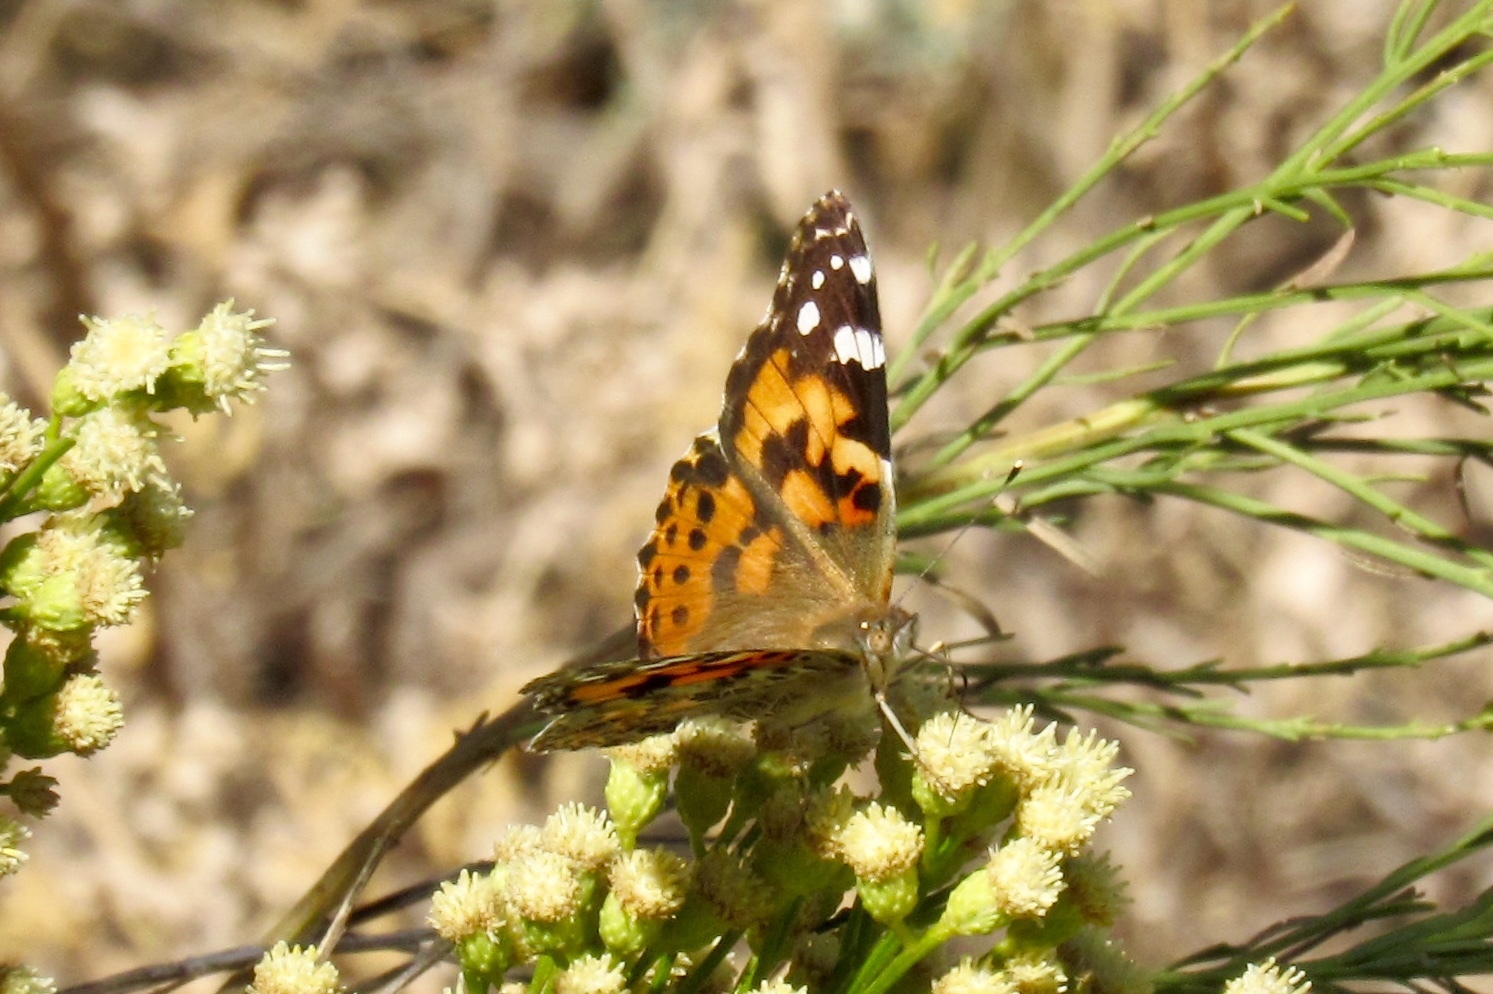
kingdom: Animalia
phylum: Arthropoda
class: Insecta
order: Lepidoptera
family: Nymphalidae
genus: Vanessa
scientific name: Vanessa cardui
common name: Painted lady
